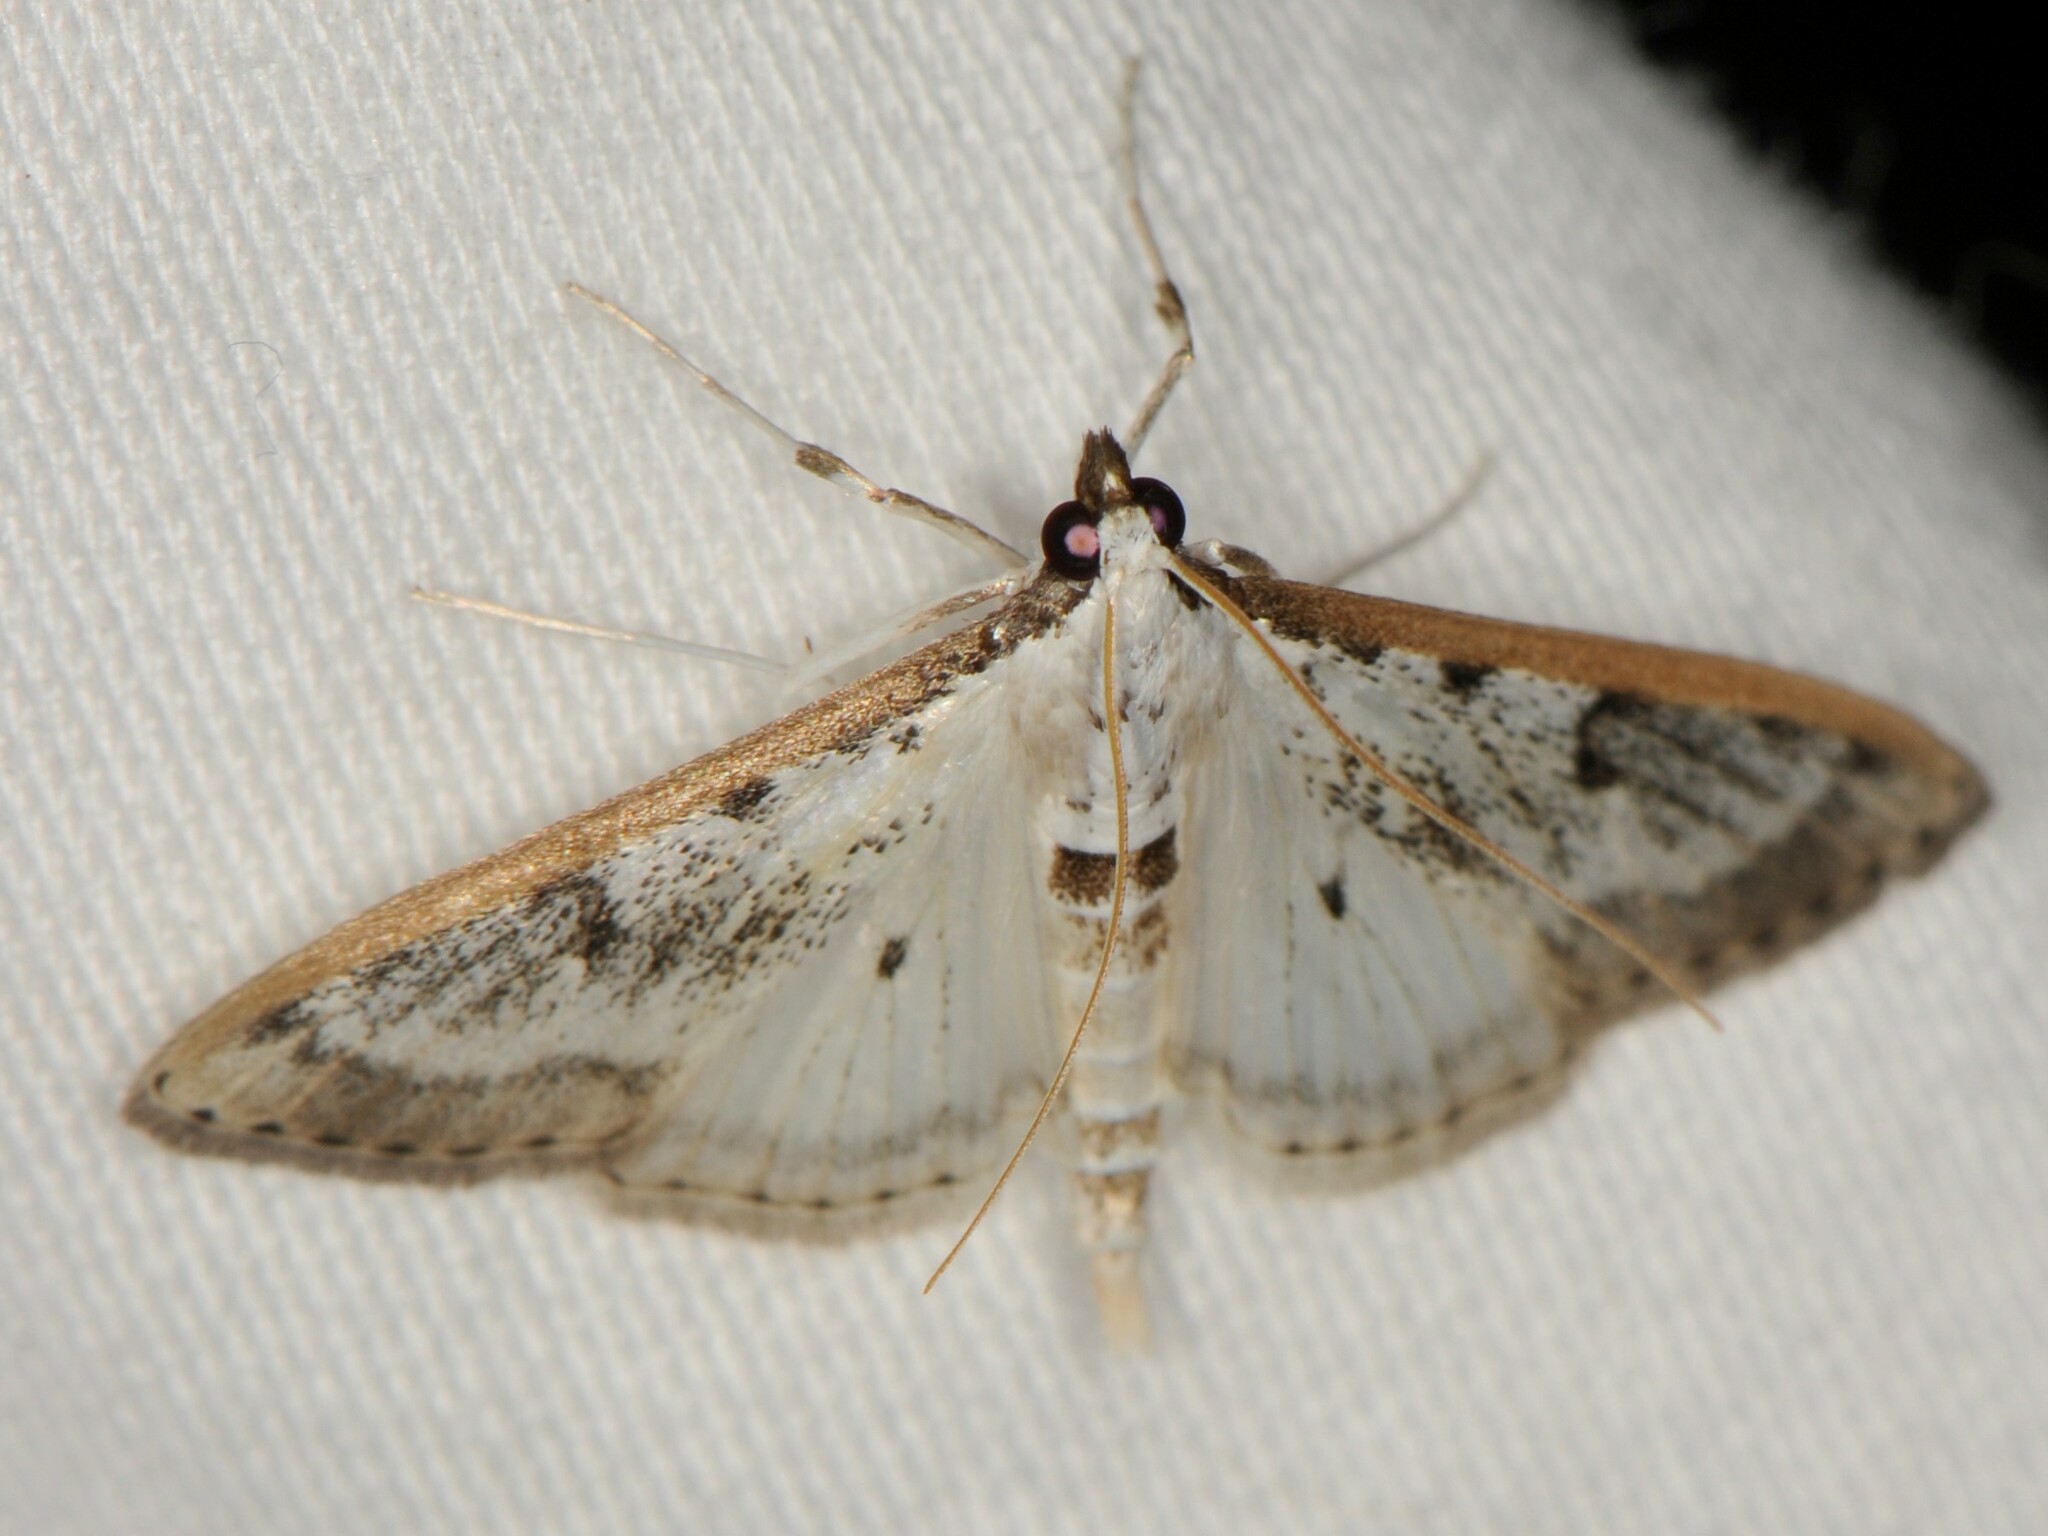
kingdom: Animalia
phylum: Arthropoda
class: Insecta
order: Lepidoptera
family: Crambidae
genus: Palpita
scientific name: Palpita gracilalis
